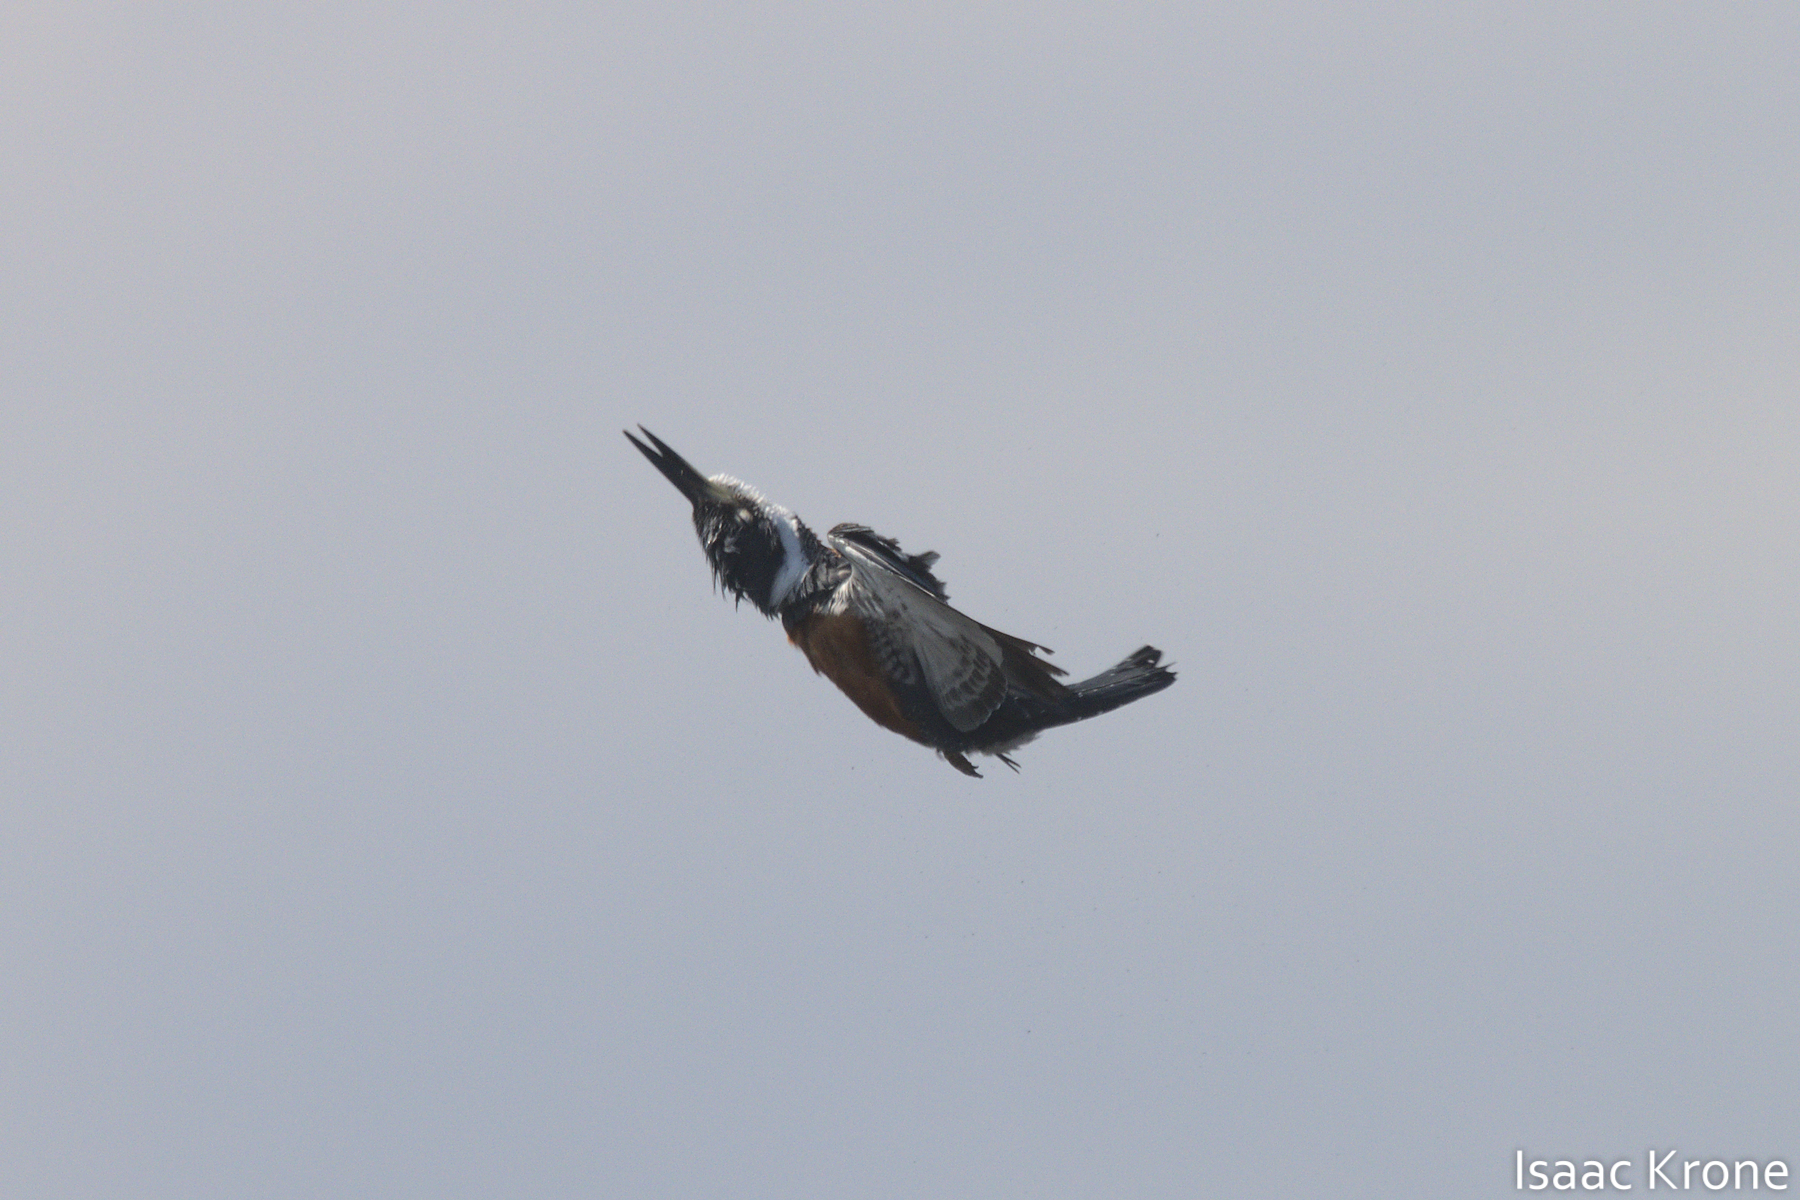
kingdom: Animalia
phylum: Chordata
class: Aves
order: Coraciiformes
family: Alcedinidae
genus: Megaceryle
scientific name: Megaceryle torquata
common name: Ringed kingfisher
